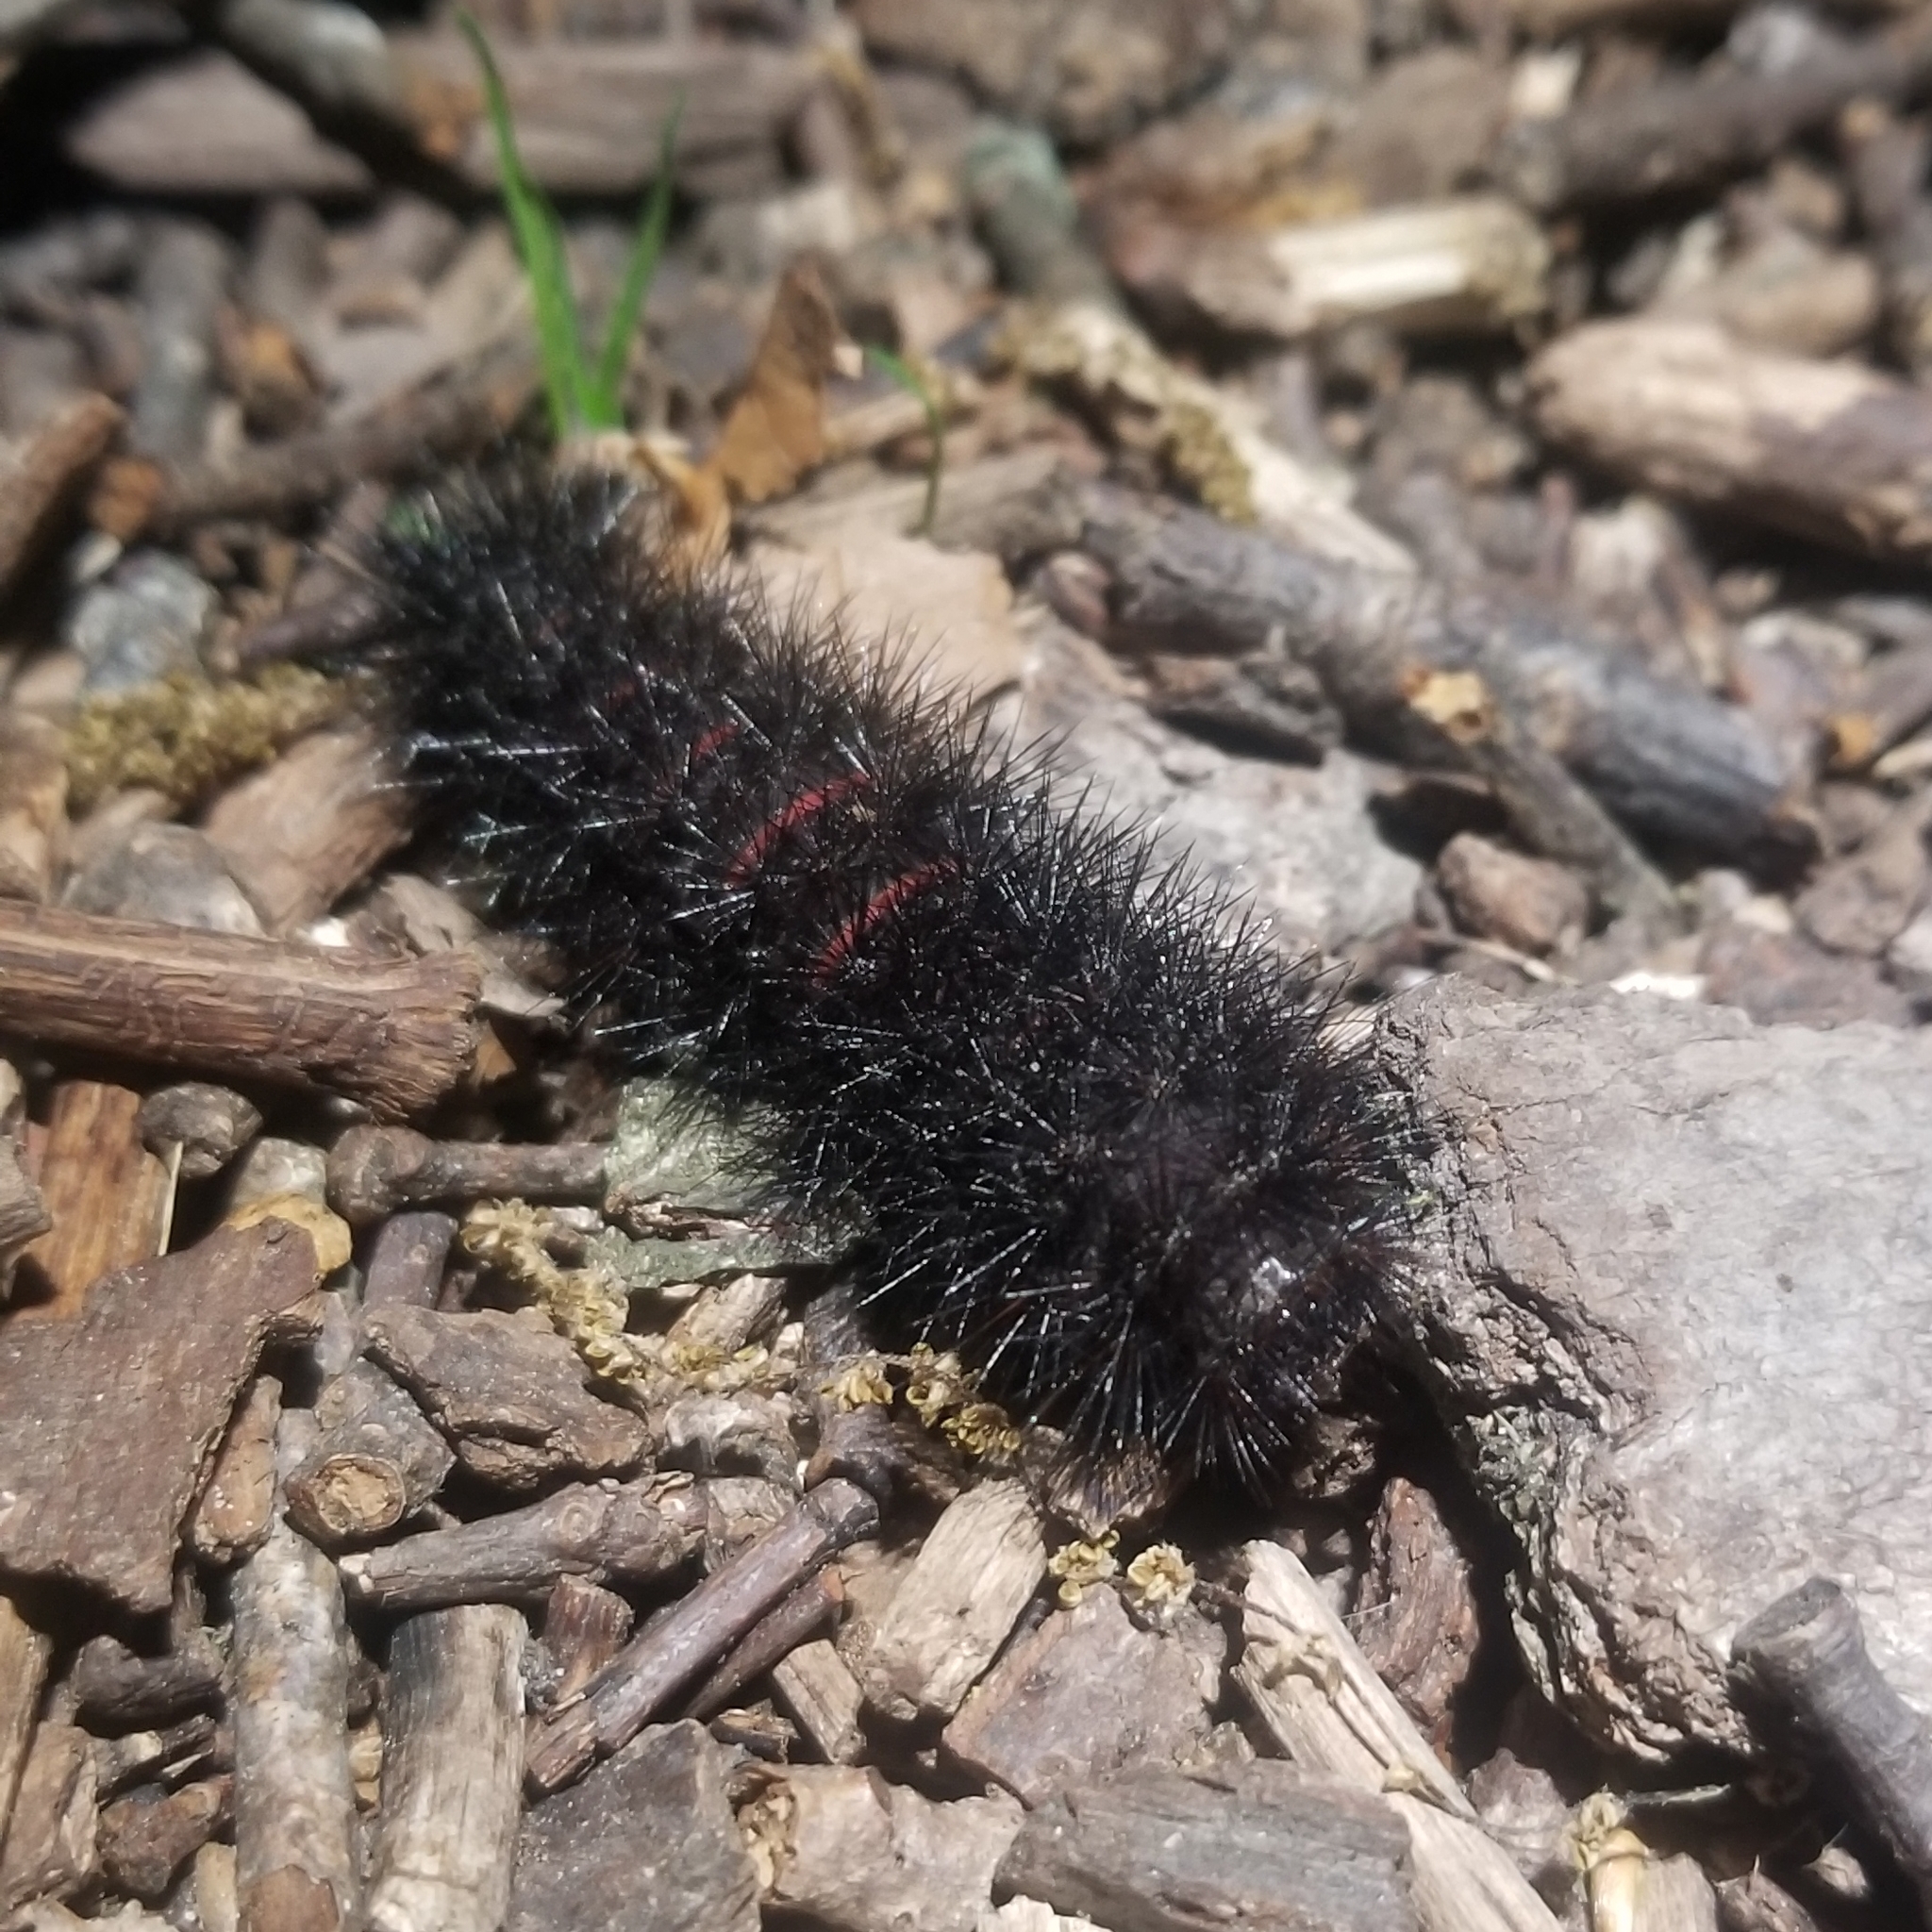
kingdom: Animalia
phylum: Arthropoda
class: Insecta
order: Lepidoptera
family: Erebidae
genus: Hypercompe
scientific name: Hypercompe scribonia
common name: Giant leopard moth
